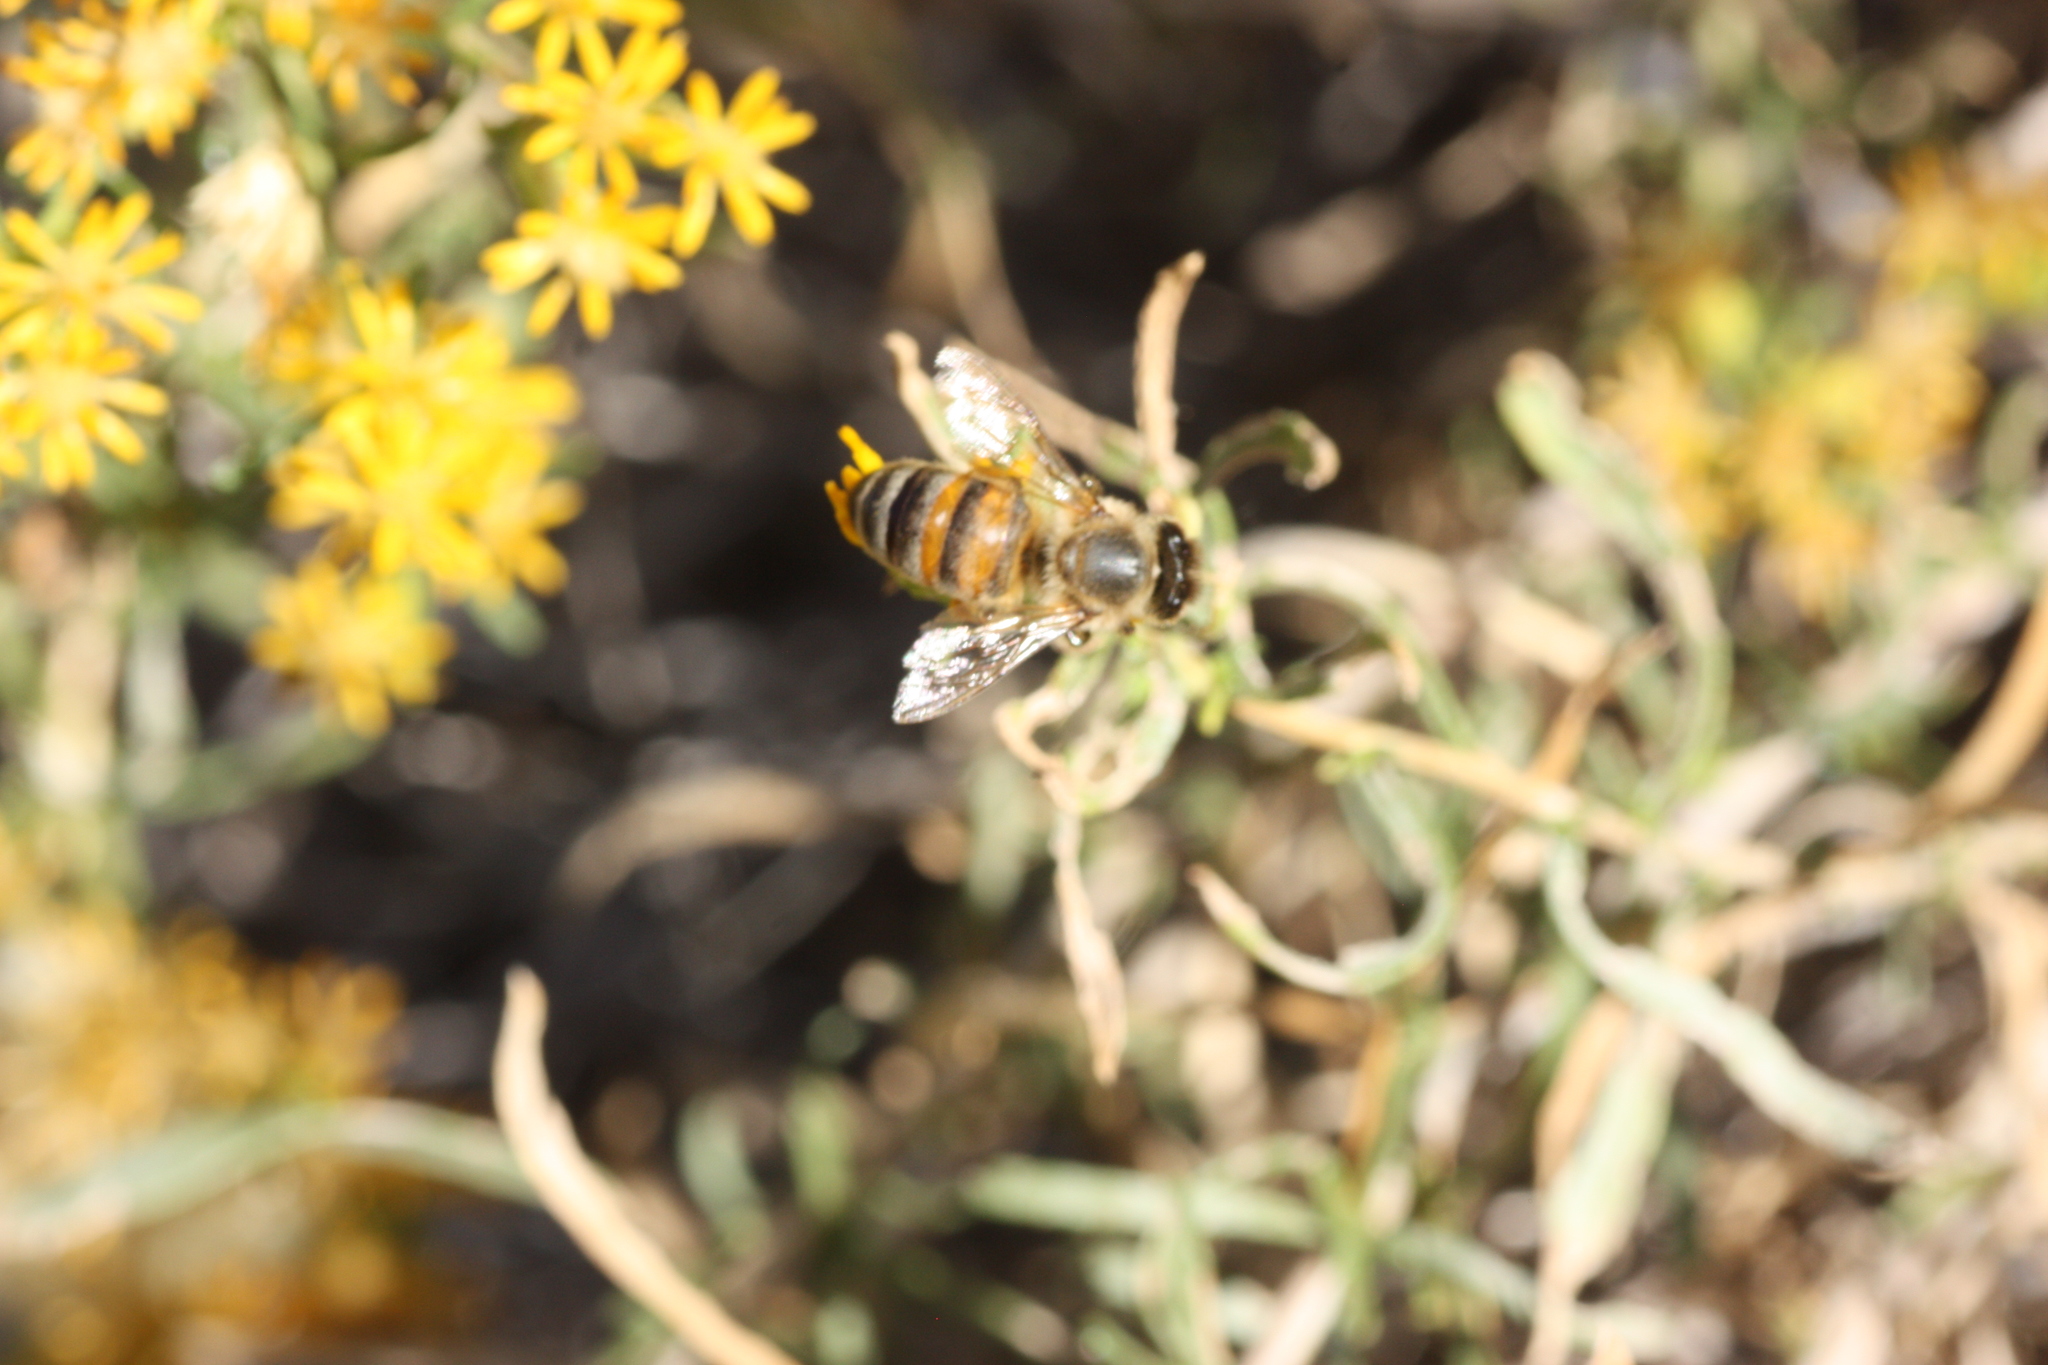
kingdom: Animalia
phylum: Arthropoda
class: Insecta
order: Hymenoptera
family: Apidae
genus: Apis
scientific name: Apis mellifera
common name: Honey bee
